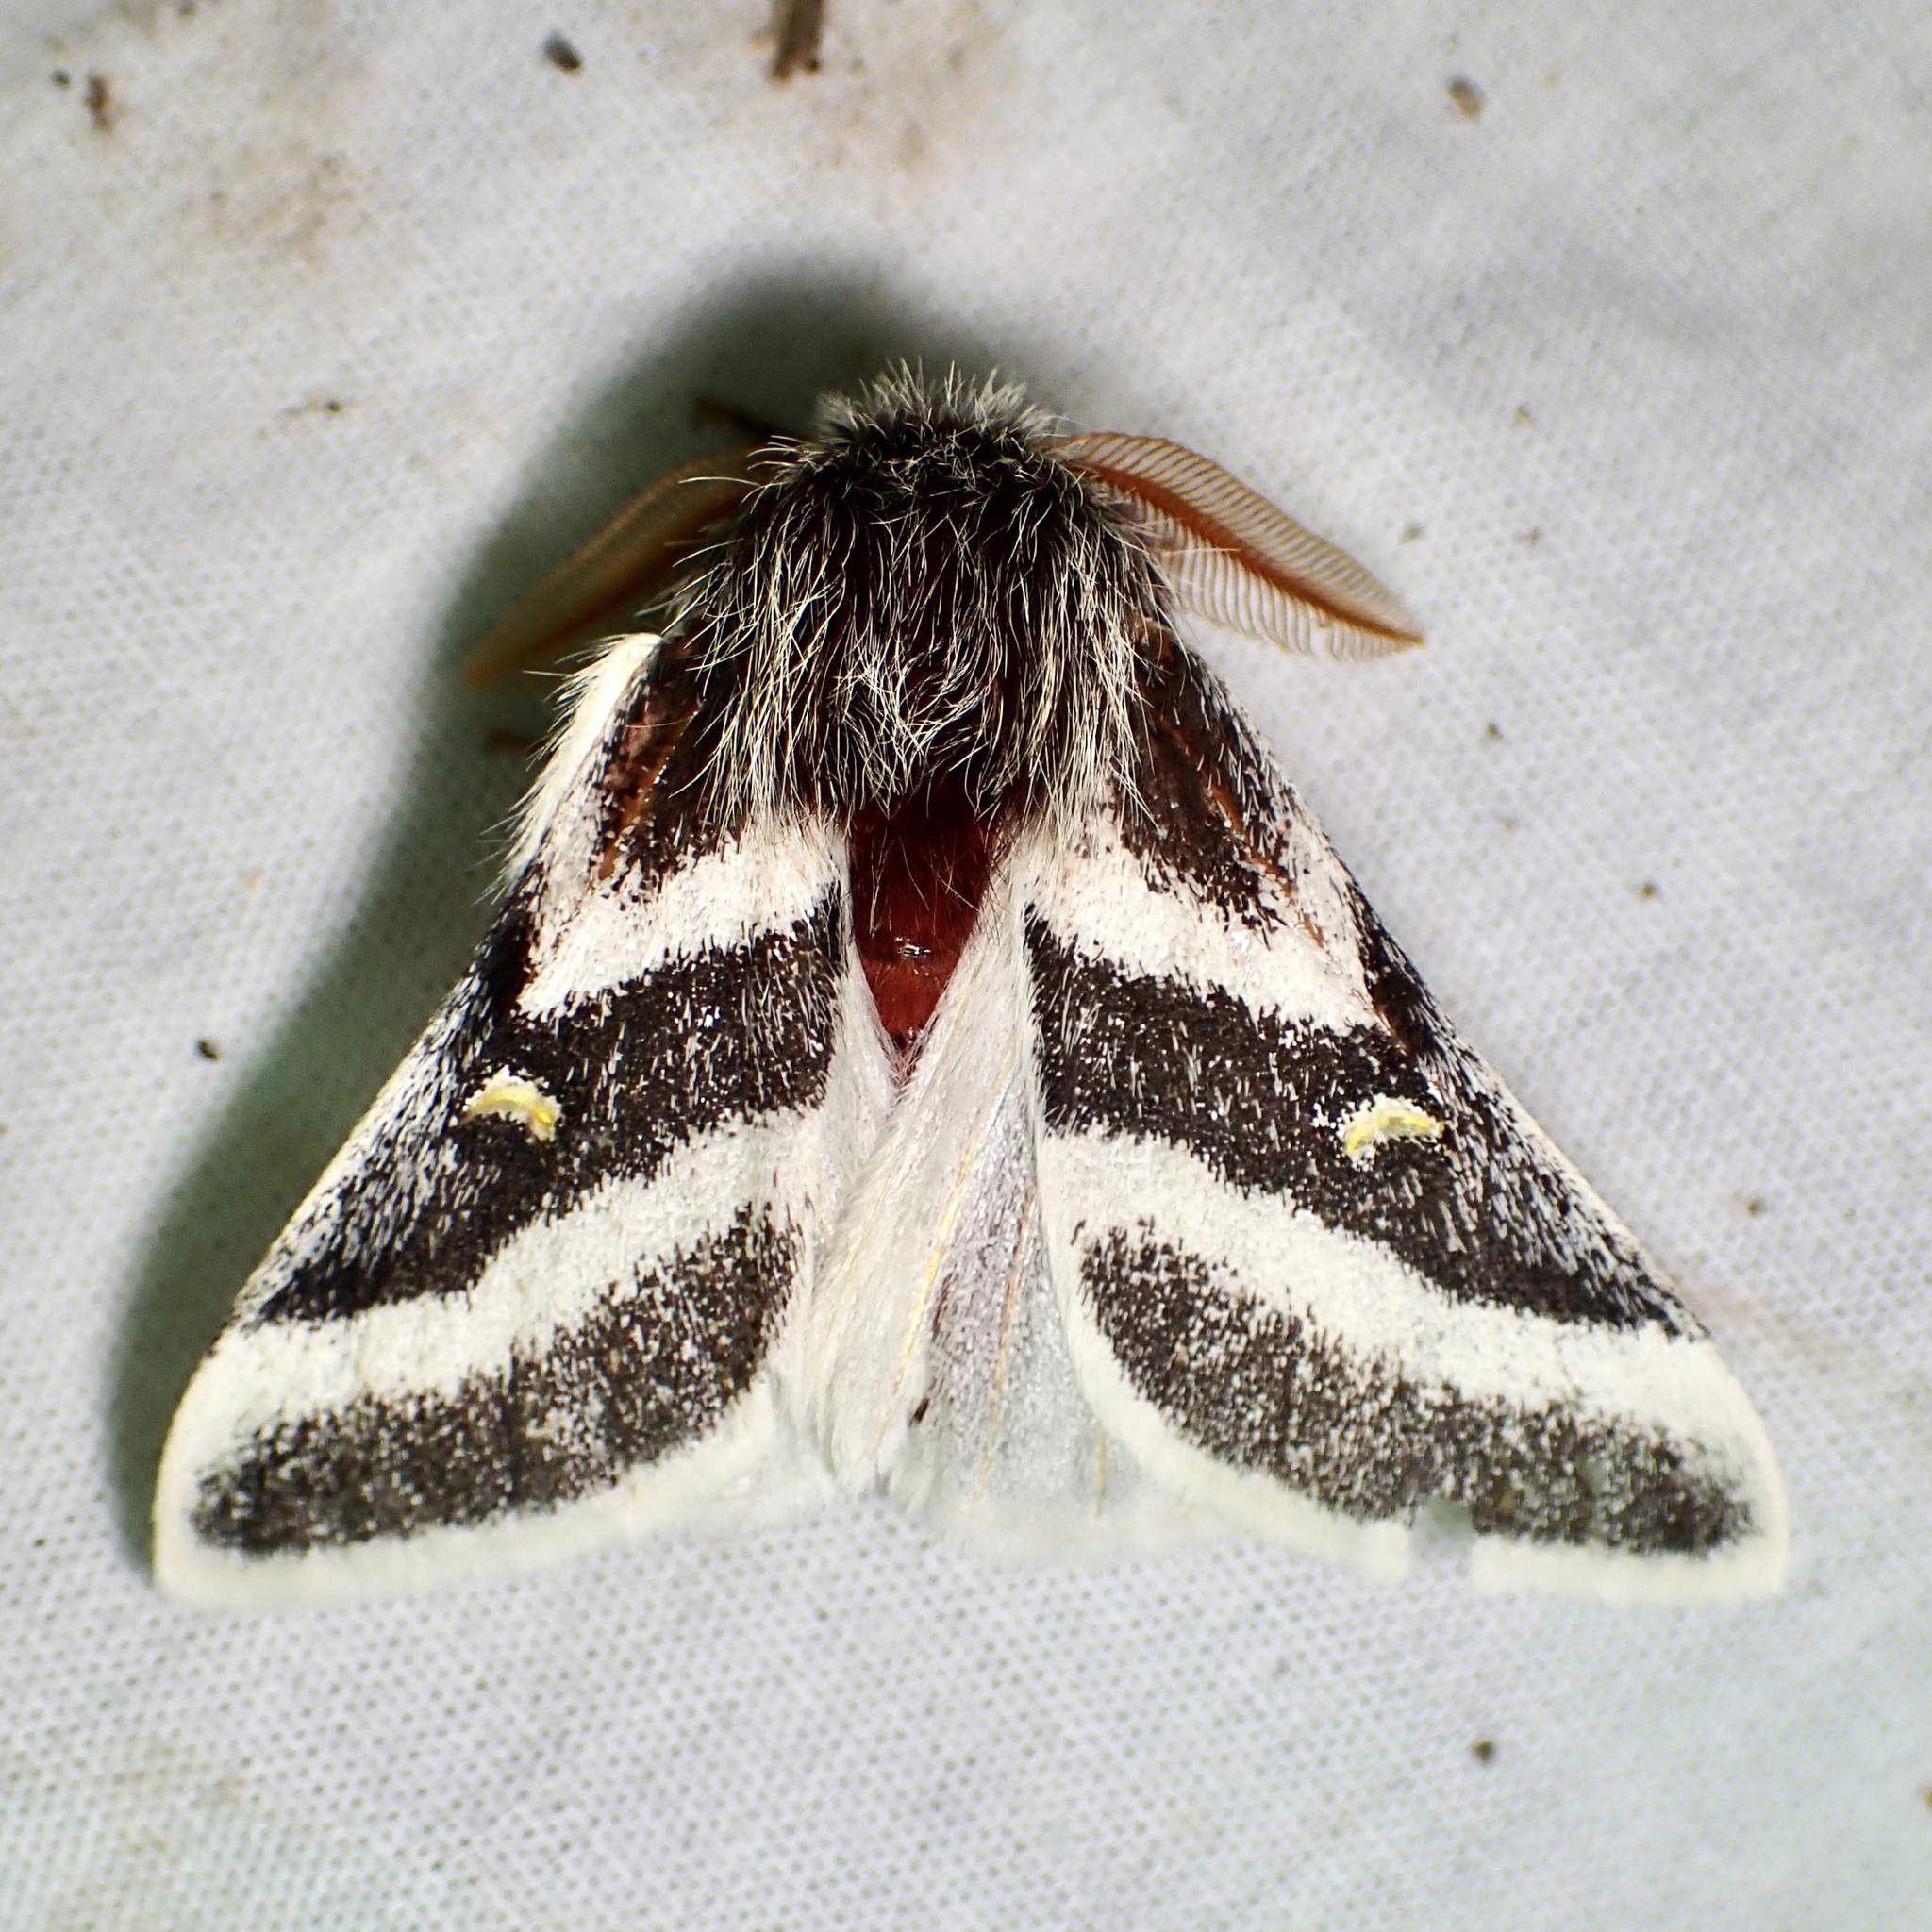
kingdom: Animalia
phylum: Arthropoda
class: Insecta
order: Lepidoptera
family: Saturniidae
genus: Hemileuca
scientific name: Hemileuca tricolor
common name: Tricolor buckmoth
